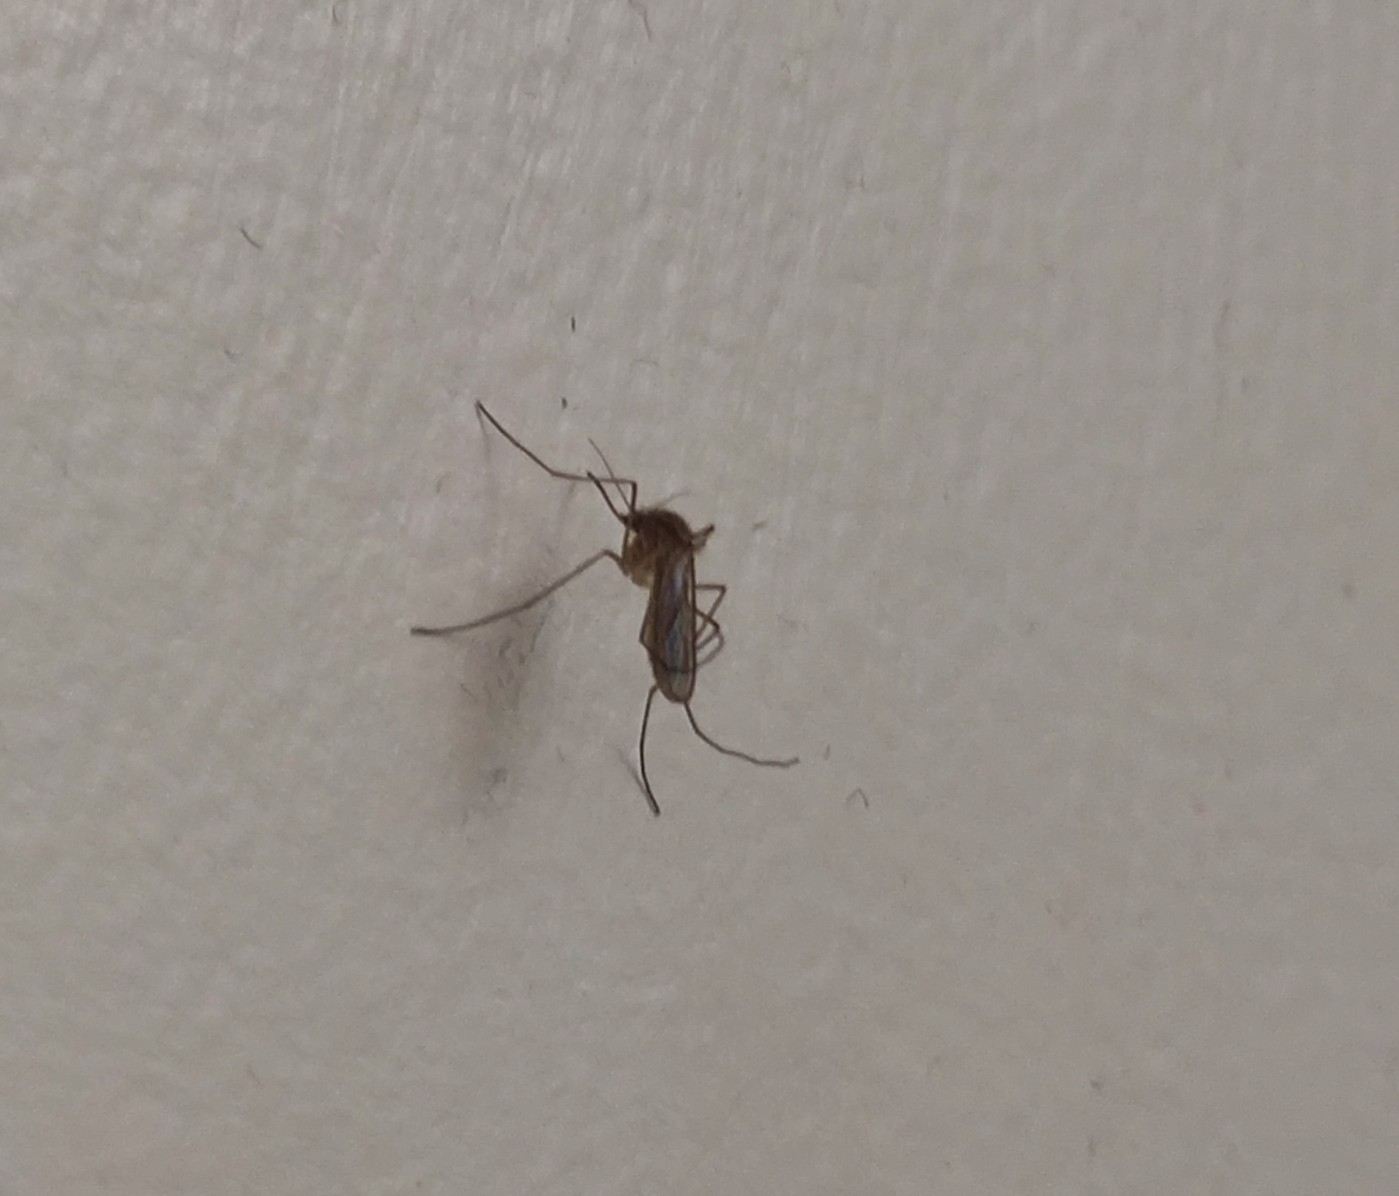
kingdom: Animalia
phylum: Arthropoda
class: Insecta
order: Diptera
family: Culicidae
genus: Culex
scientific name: Culex pipiens
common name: Mosquito
